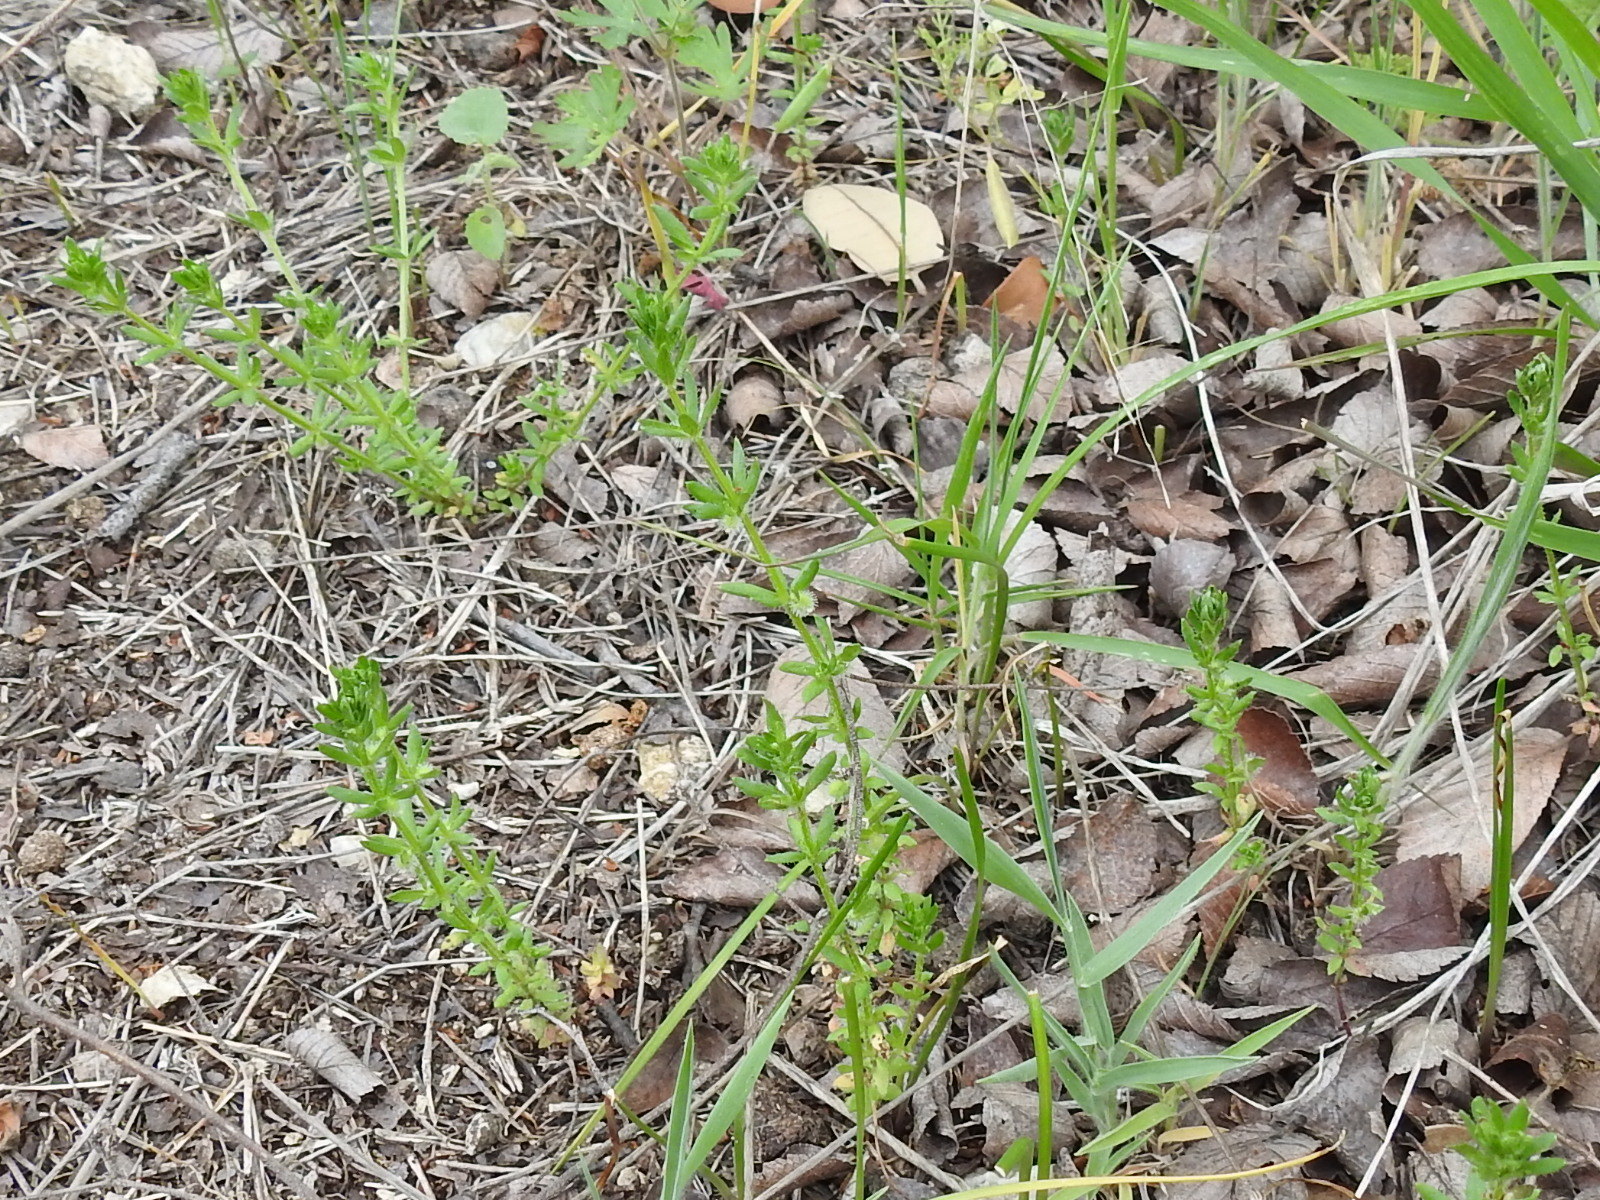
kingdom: Plantae
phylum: Tracheophyta
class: Magnoliopsida
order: Gentianales
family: Rubiaceae
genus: Galium
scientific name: Galium virgatum
